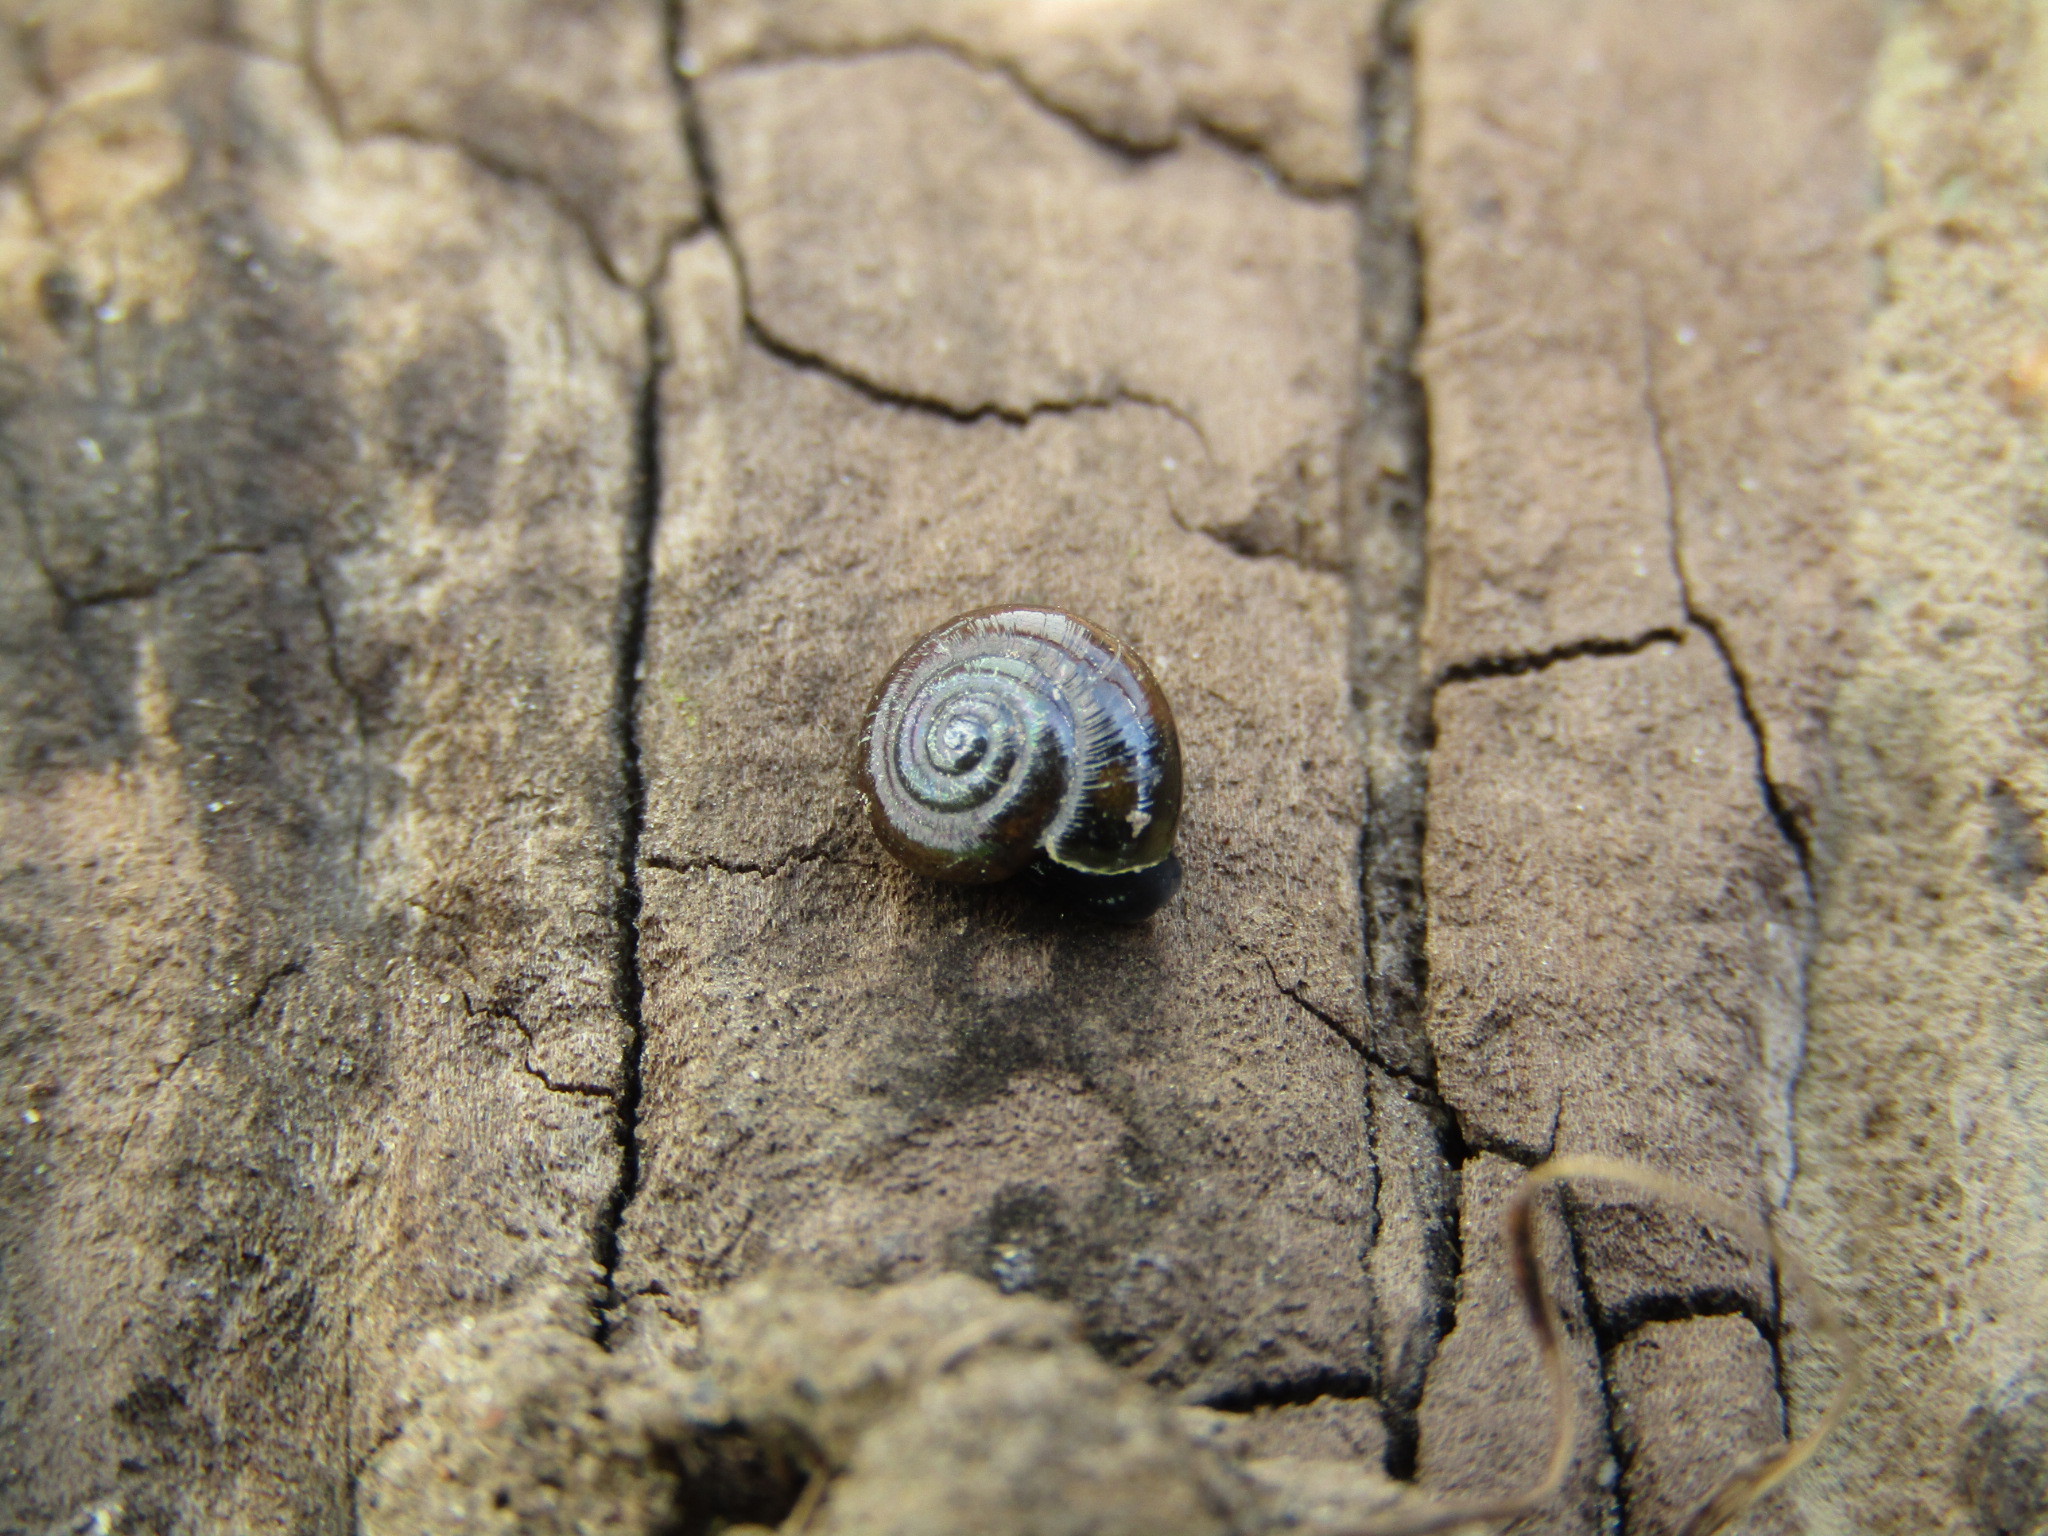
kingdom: Animalia
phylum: Mollusca
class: Gastropoda
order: Stylommatophora
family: Gastrodontidae
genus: Zonitoides
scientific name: Zonitoides nitidus
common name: Shiny glass snail
